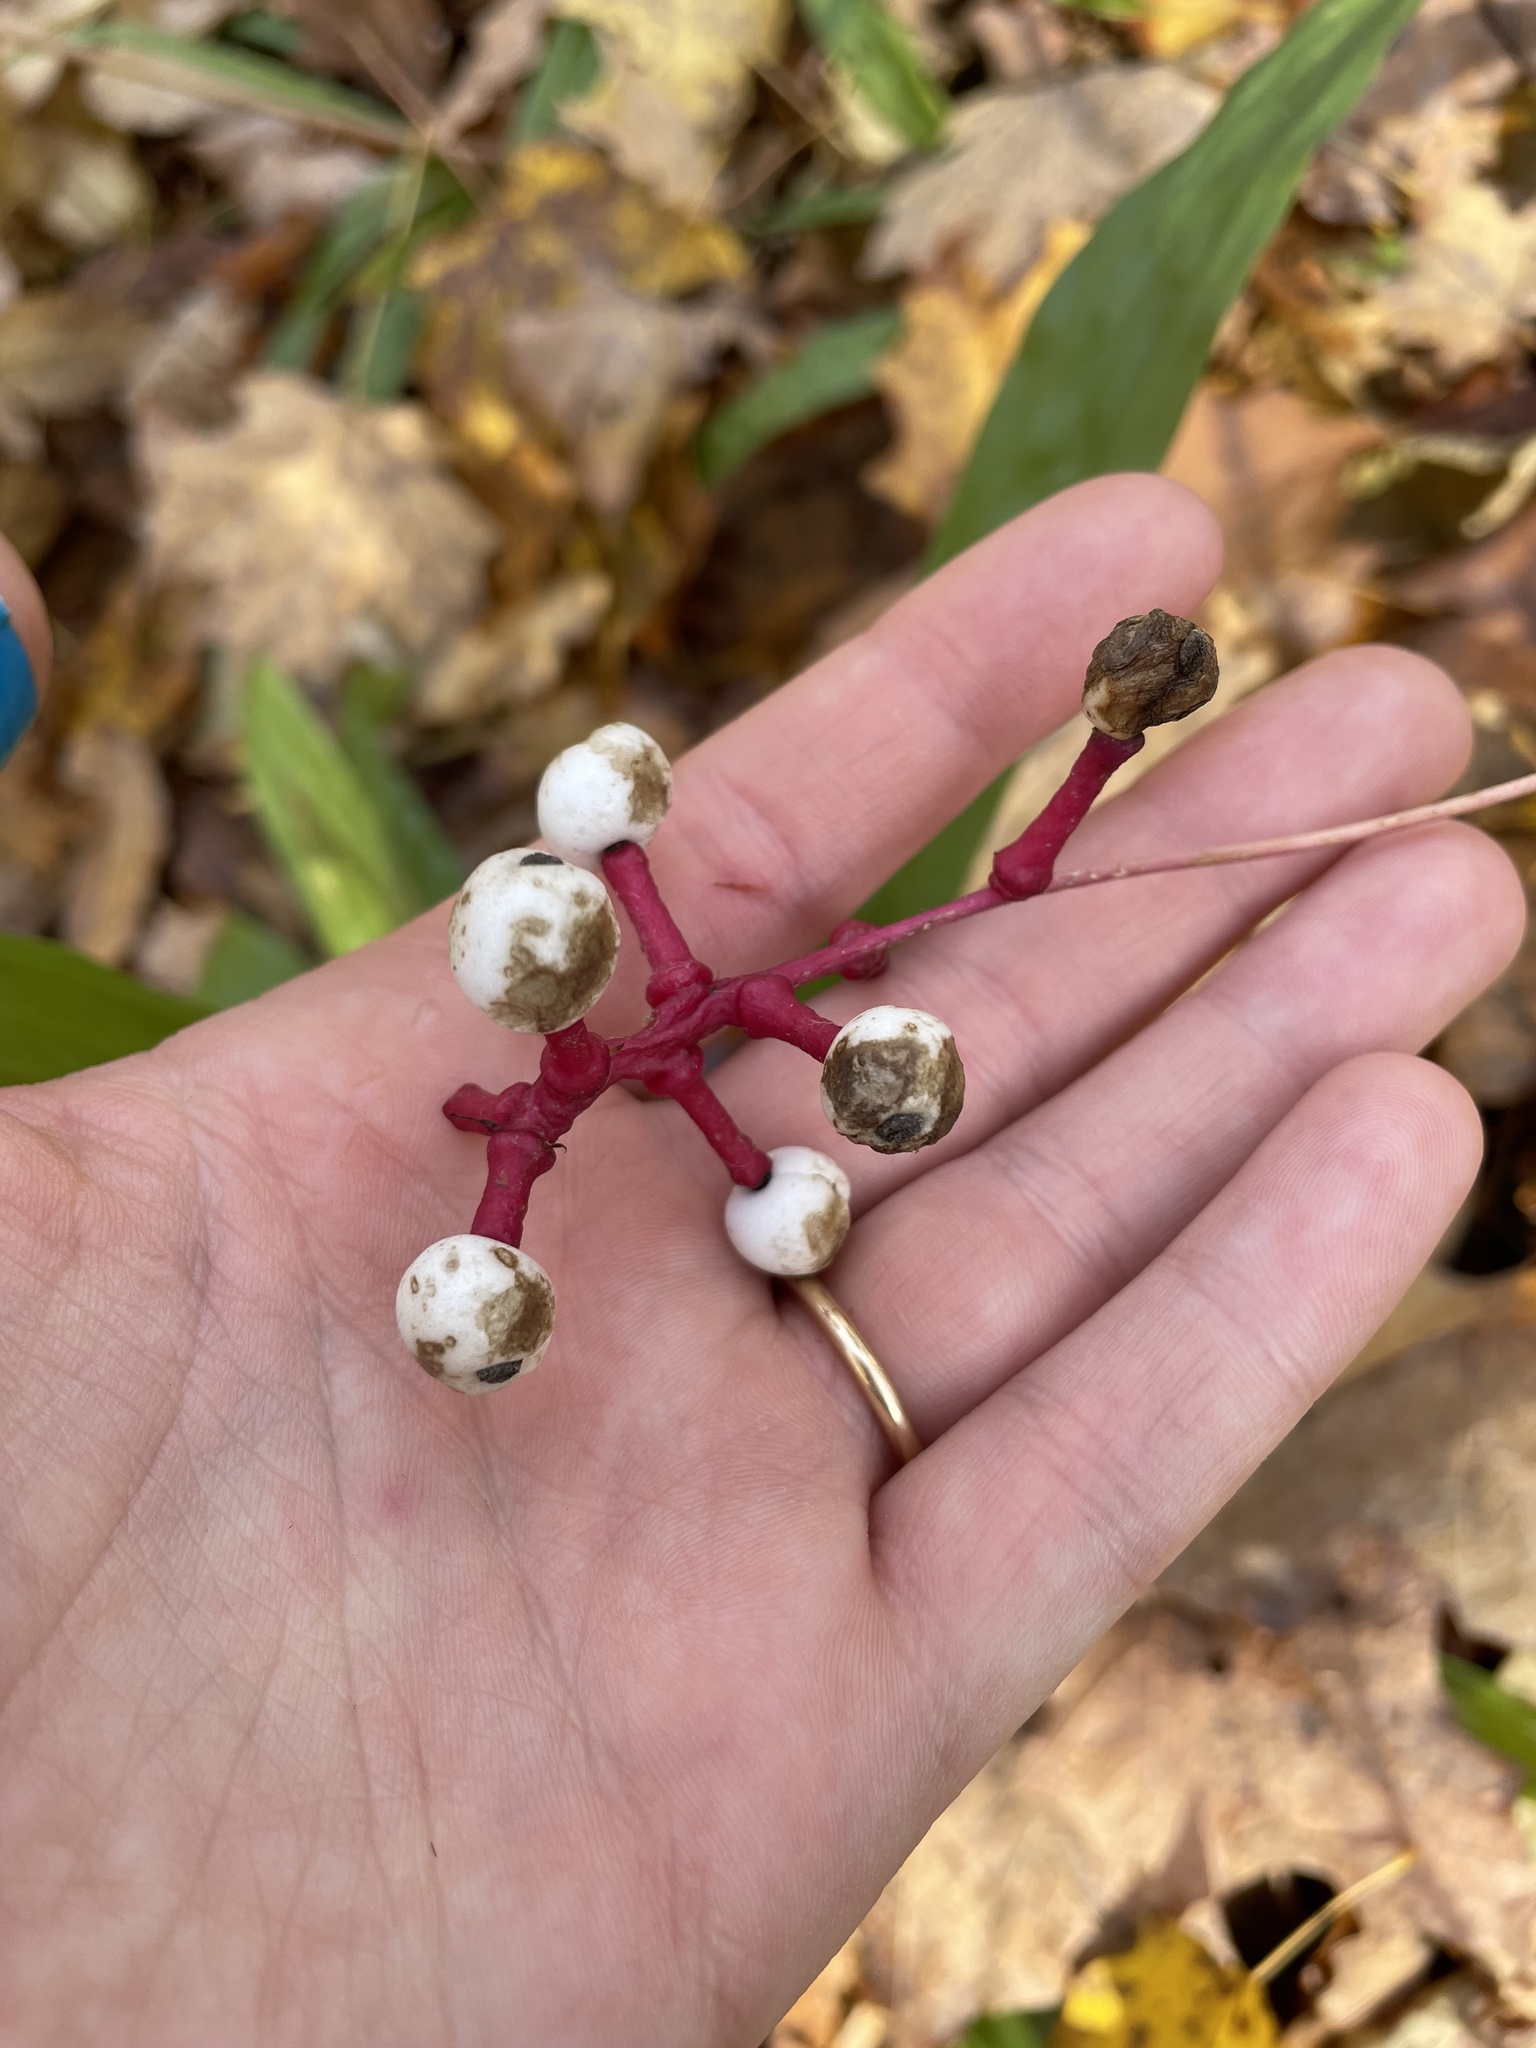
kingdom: Plantae
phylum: Tracheophyta
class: Magnoliopsida
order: Ranunculales
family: Ranunculaceae
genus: Actaea
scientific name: Actaea pachypoda
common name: Doll's-eyes
